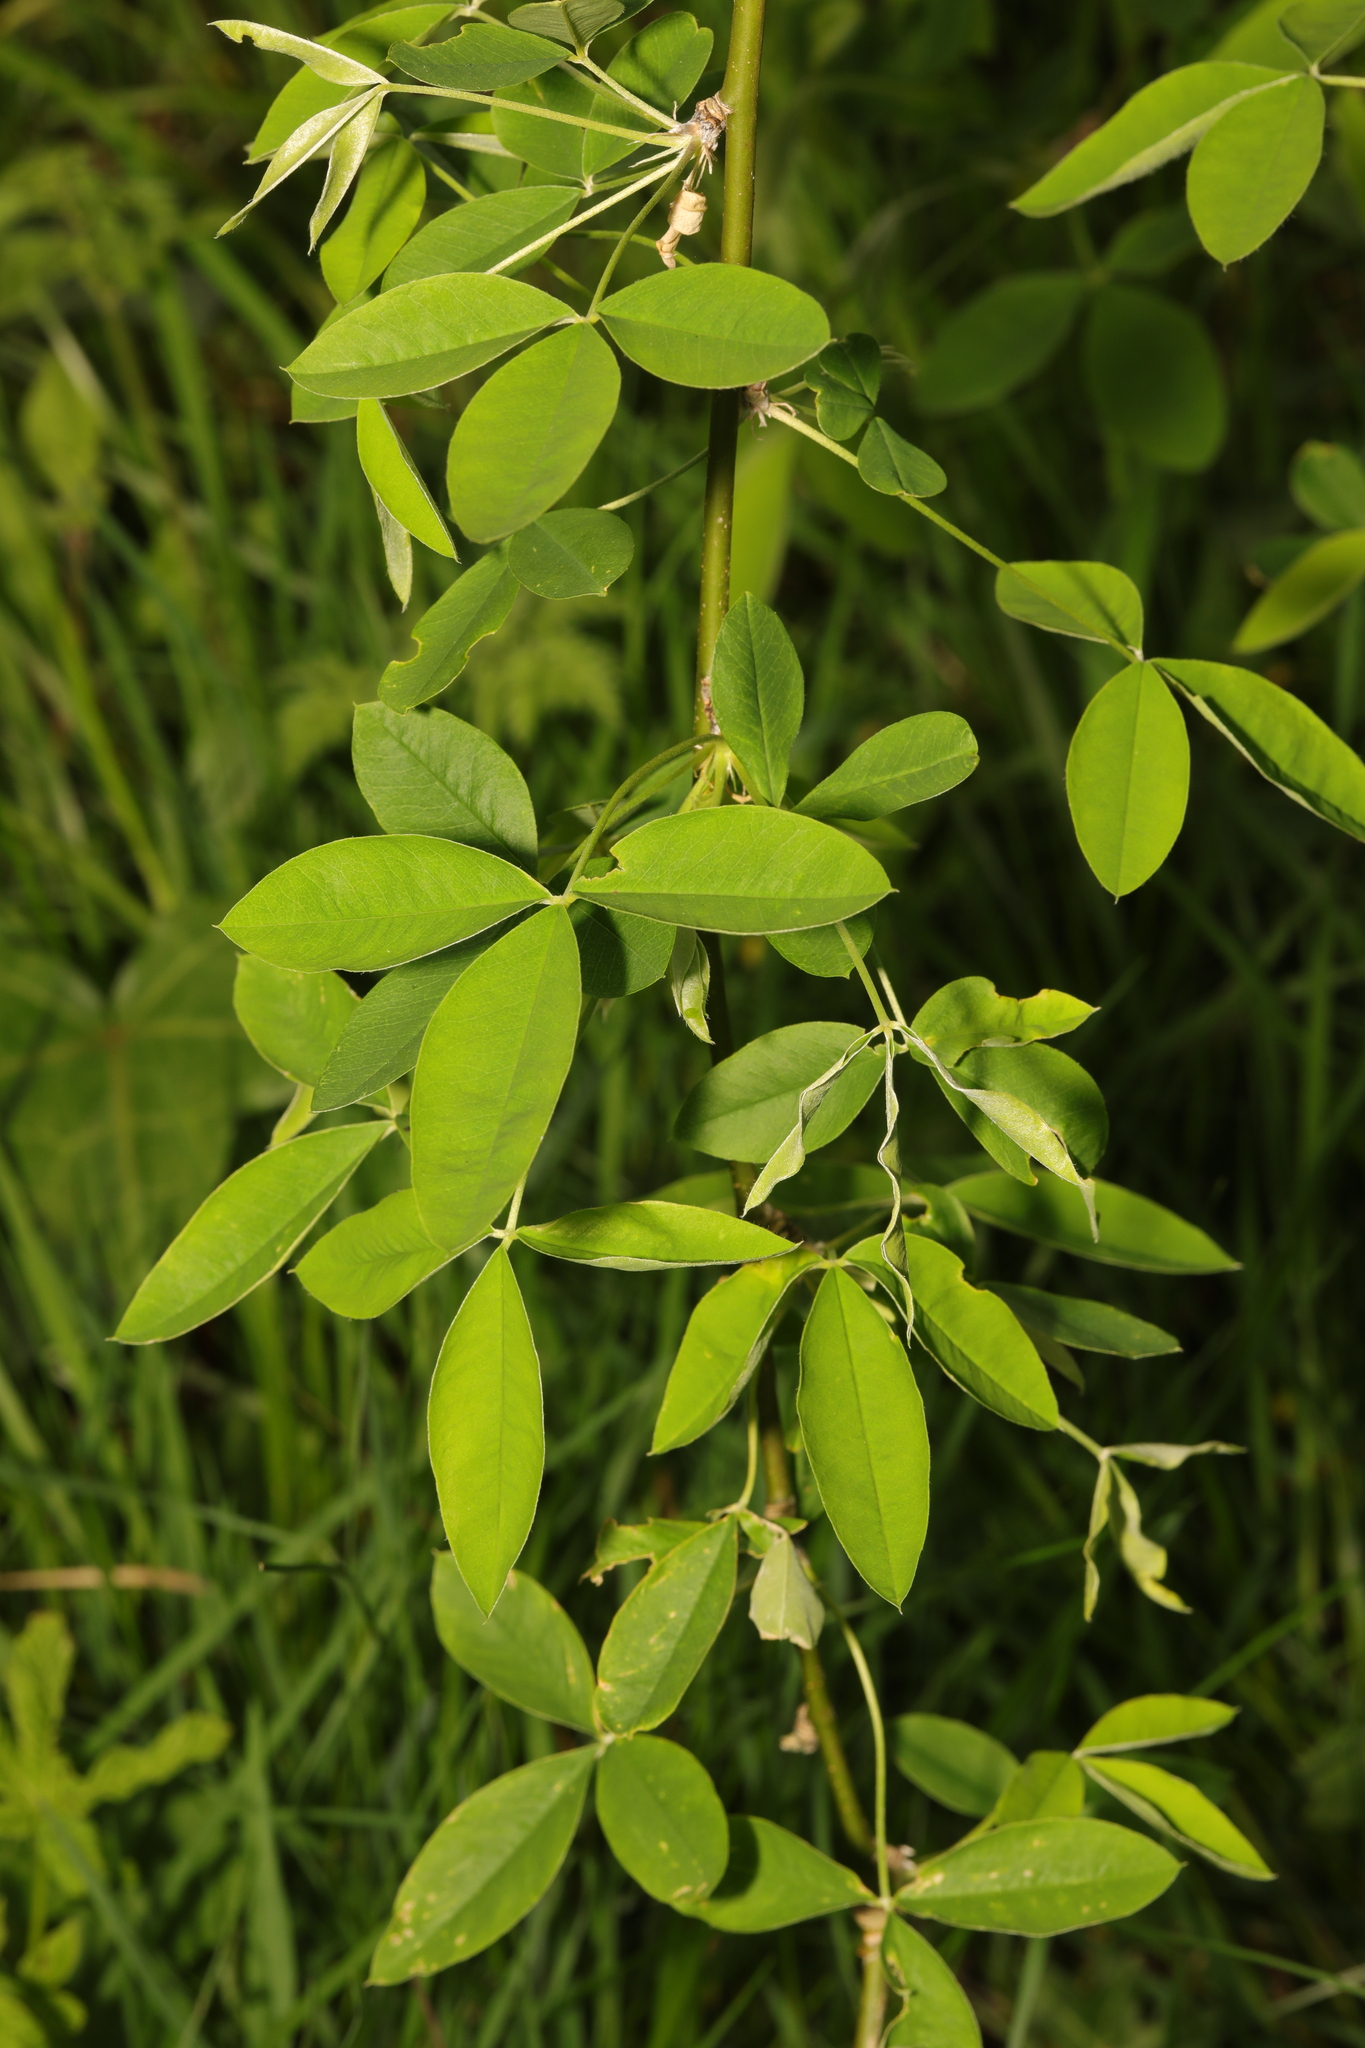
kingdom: Plantae
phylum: Tracheophyta
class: Magnoliopsida
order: Fabales
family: Fabaceae
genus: Laburnum
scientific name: Laburnum anagyroides
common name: Laburnum
